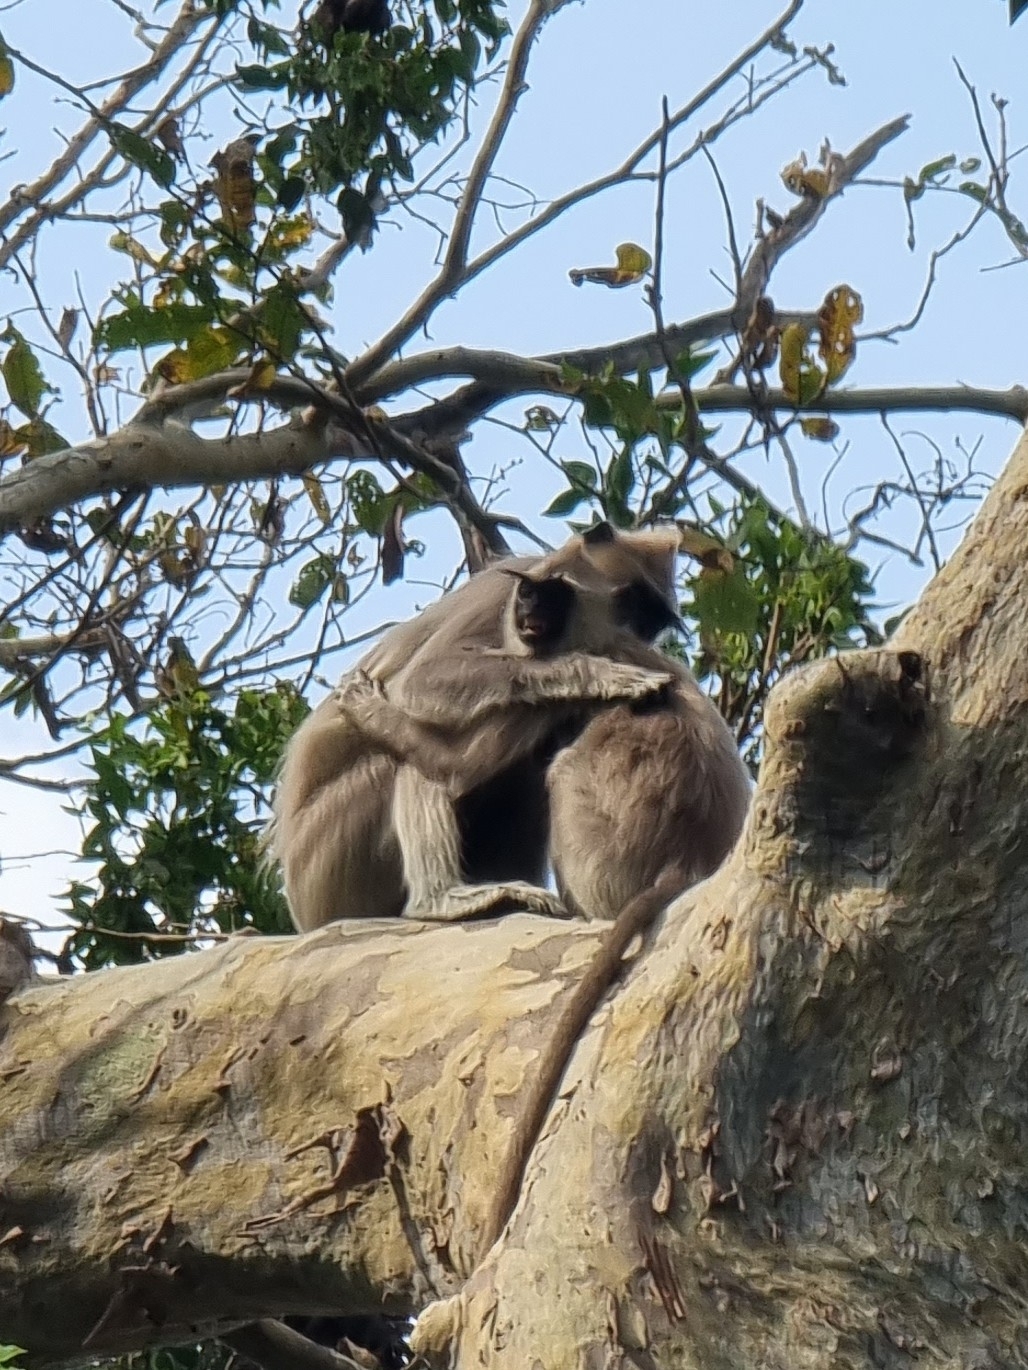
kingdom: Animalia
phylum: Chordata
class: Mammalia
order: Primates
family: Cercopithecidae
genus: Semnopithecus
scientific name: Semnopithecus priam
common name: Tufted gray langur
